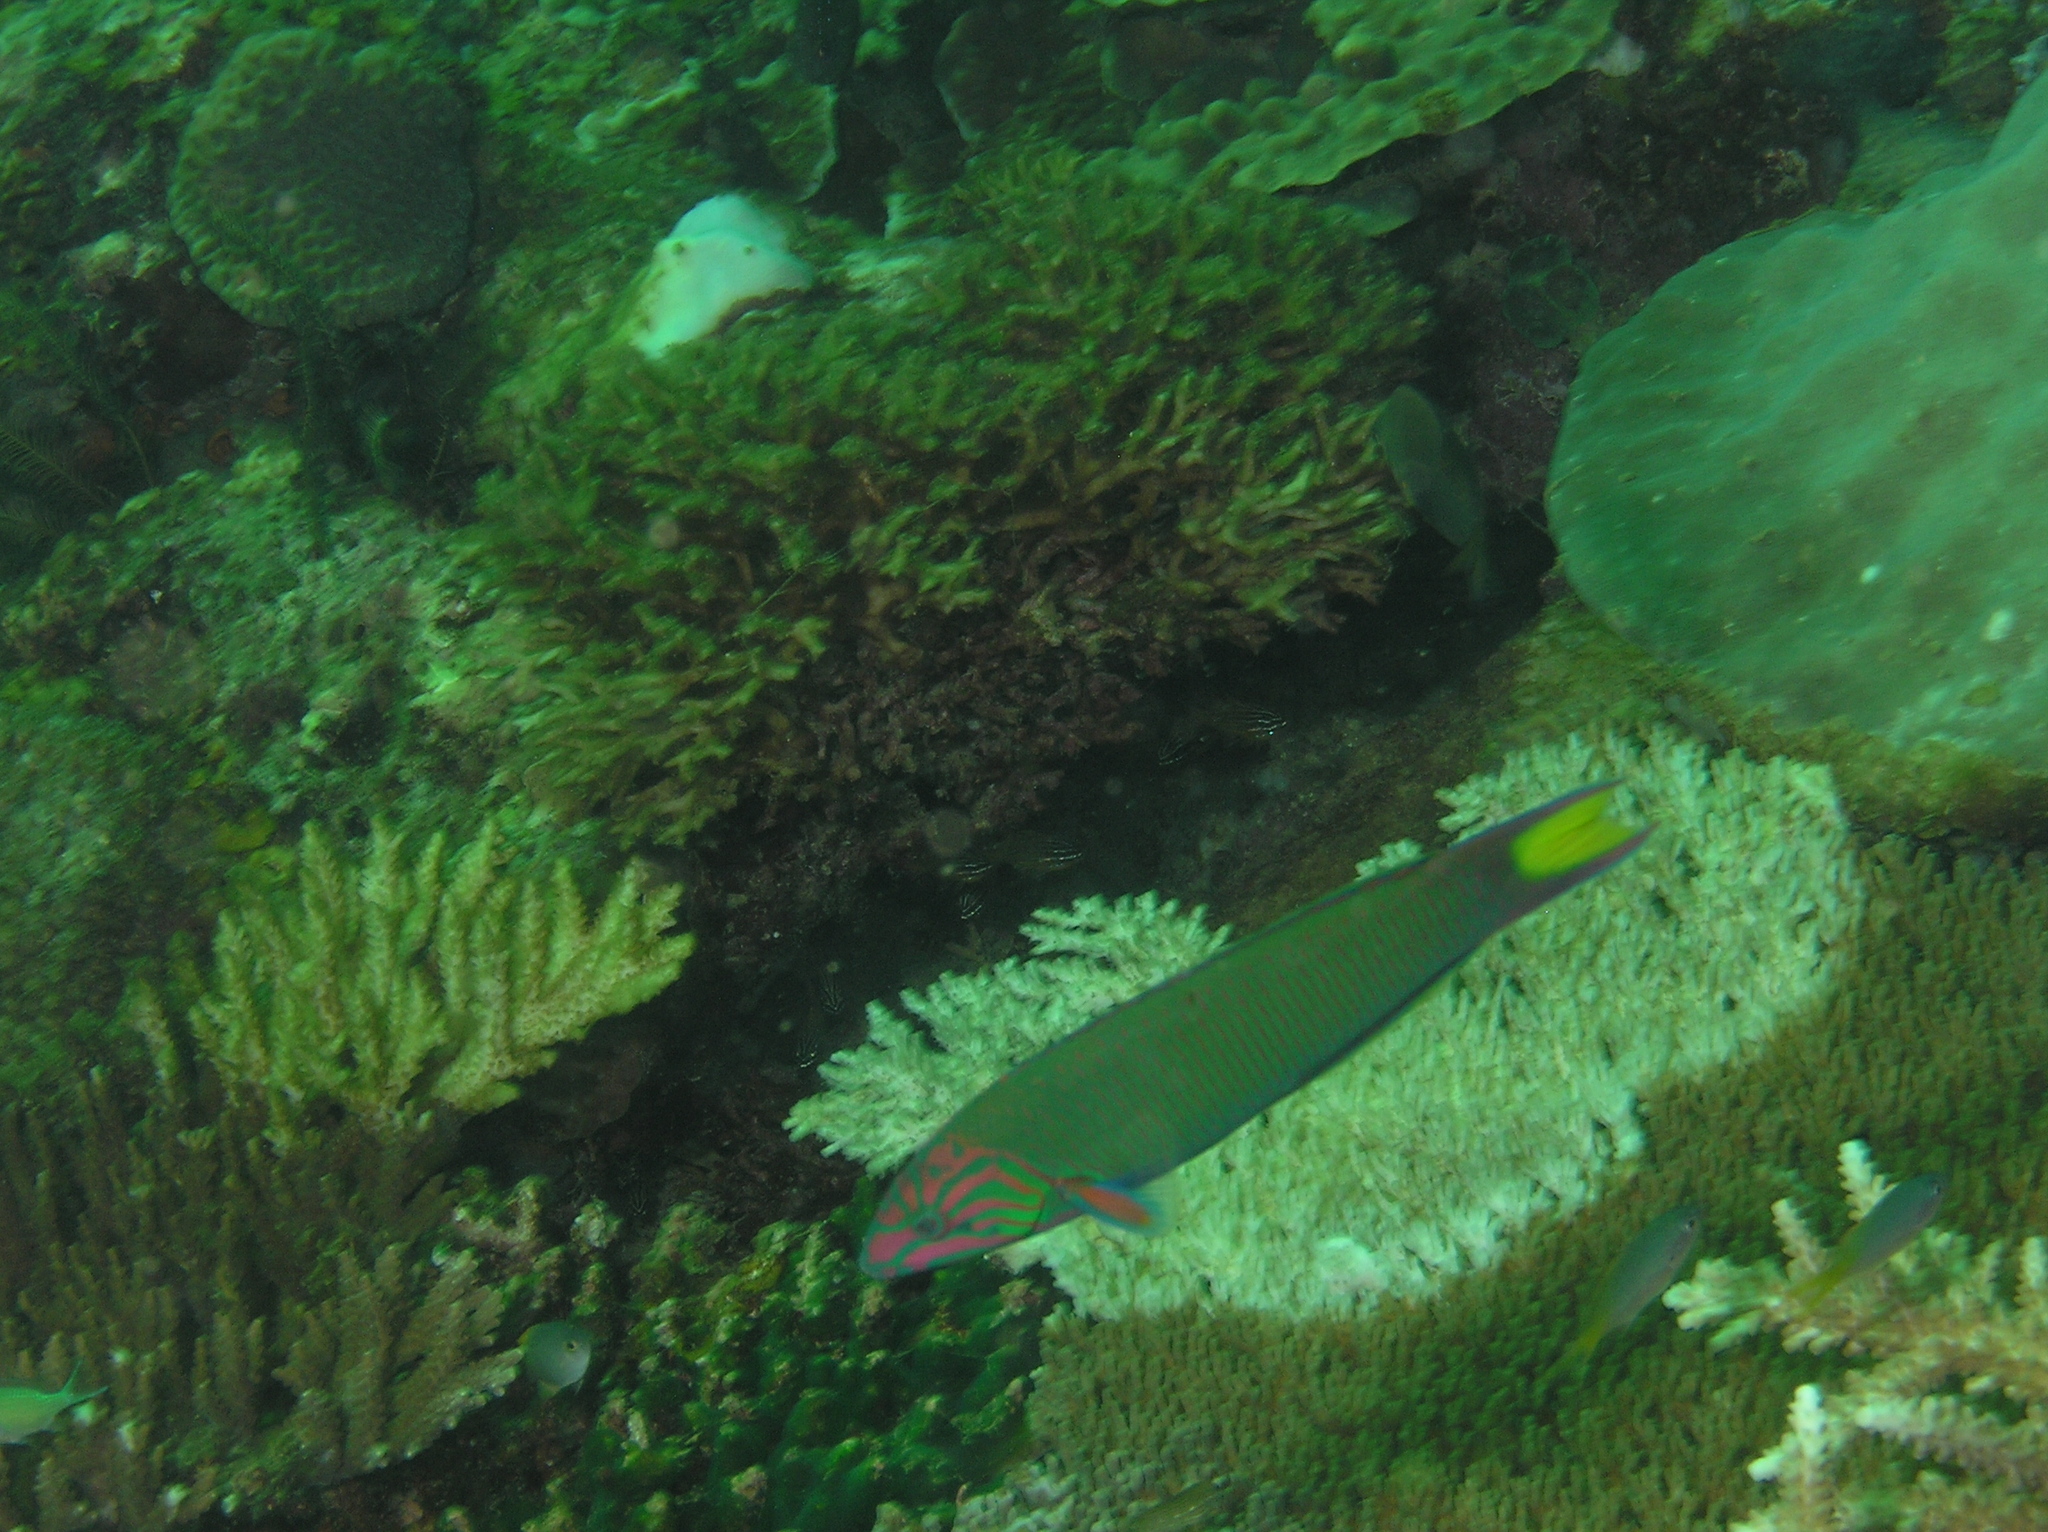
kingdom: Animalia
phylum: Chordata
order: Perciformes
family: Labridae
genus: Thalassoma
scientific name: Thalassoma lunare
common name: Blue wrasse
